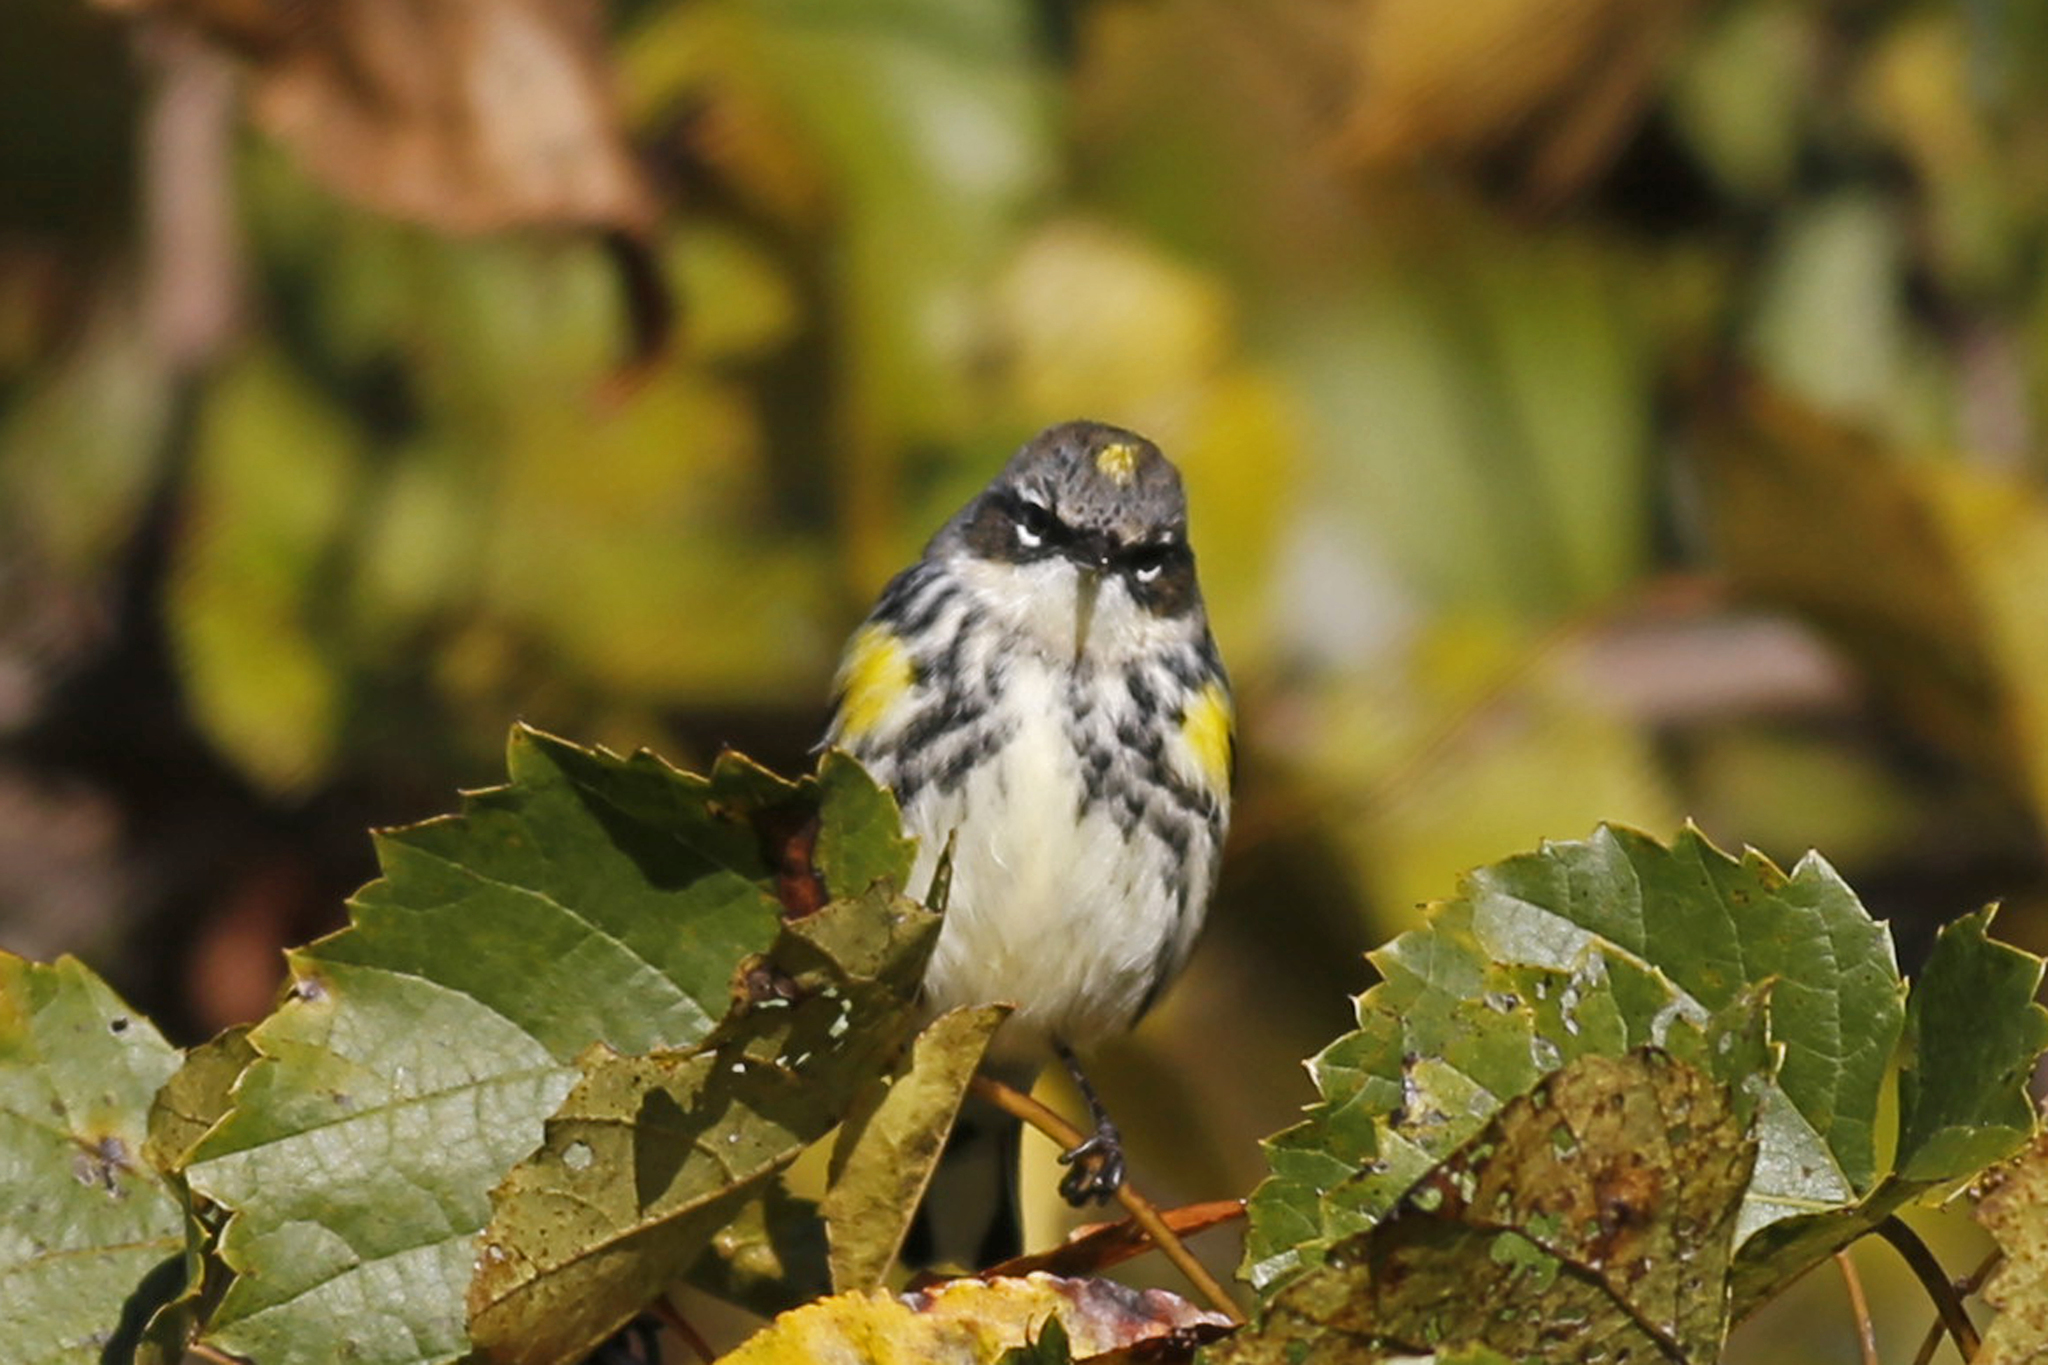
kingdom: Animalia
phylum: Chordata
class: Aves
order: Passeriformes
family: Parulidae
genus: Setophaga
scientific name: Setophaga coronata
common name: Myrtle warbler
